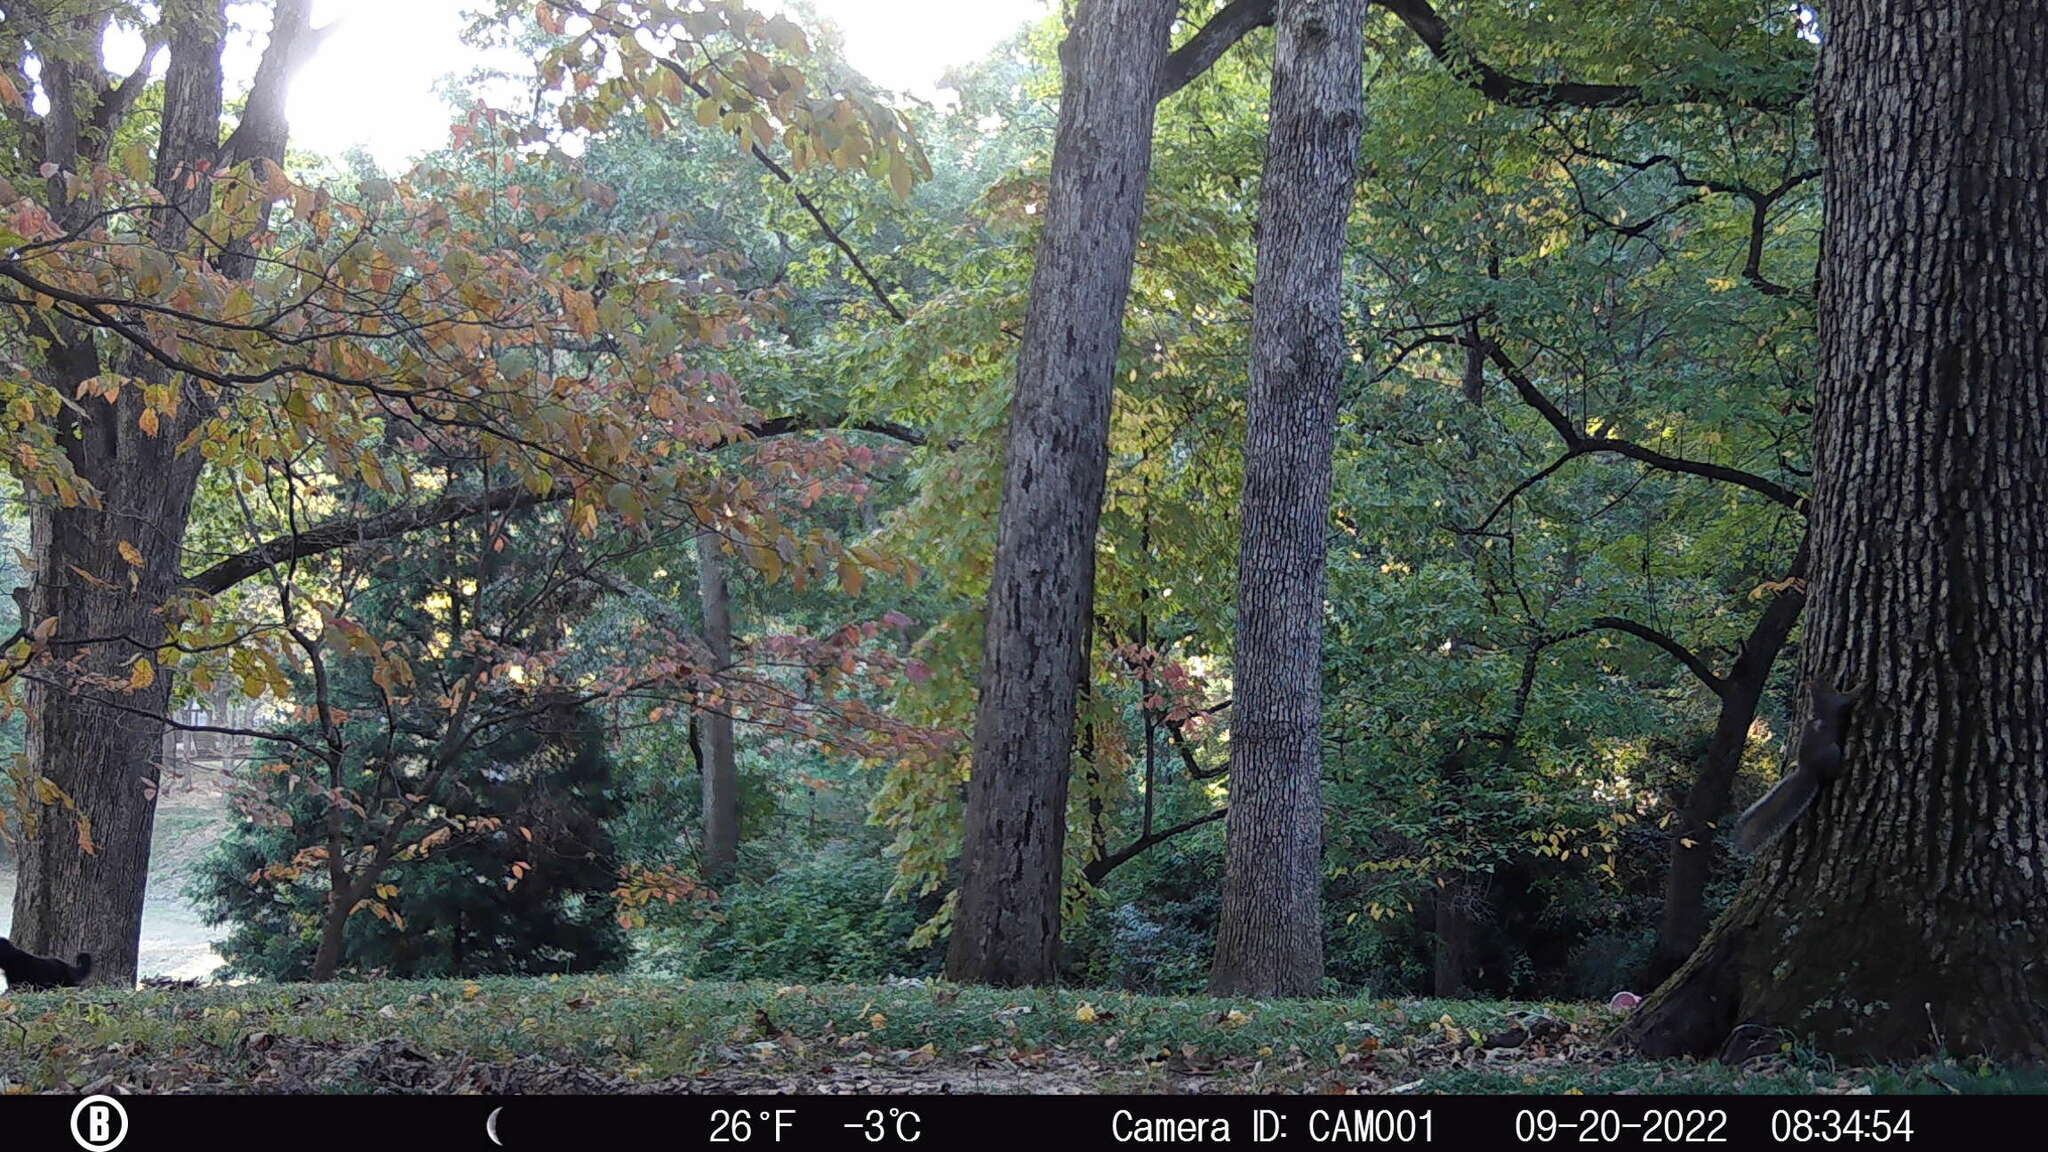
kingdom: Animalia
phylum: Chordata
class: Mammalia
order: Rodentia
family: Sciuridae
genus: Sciurus
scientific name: Sciurus carolinensis
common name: Eastern gray squirrel
